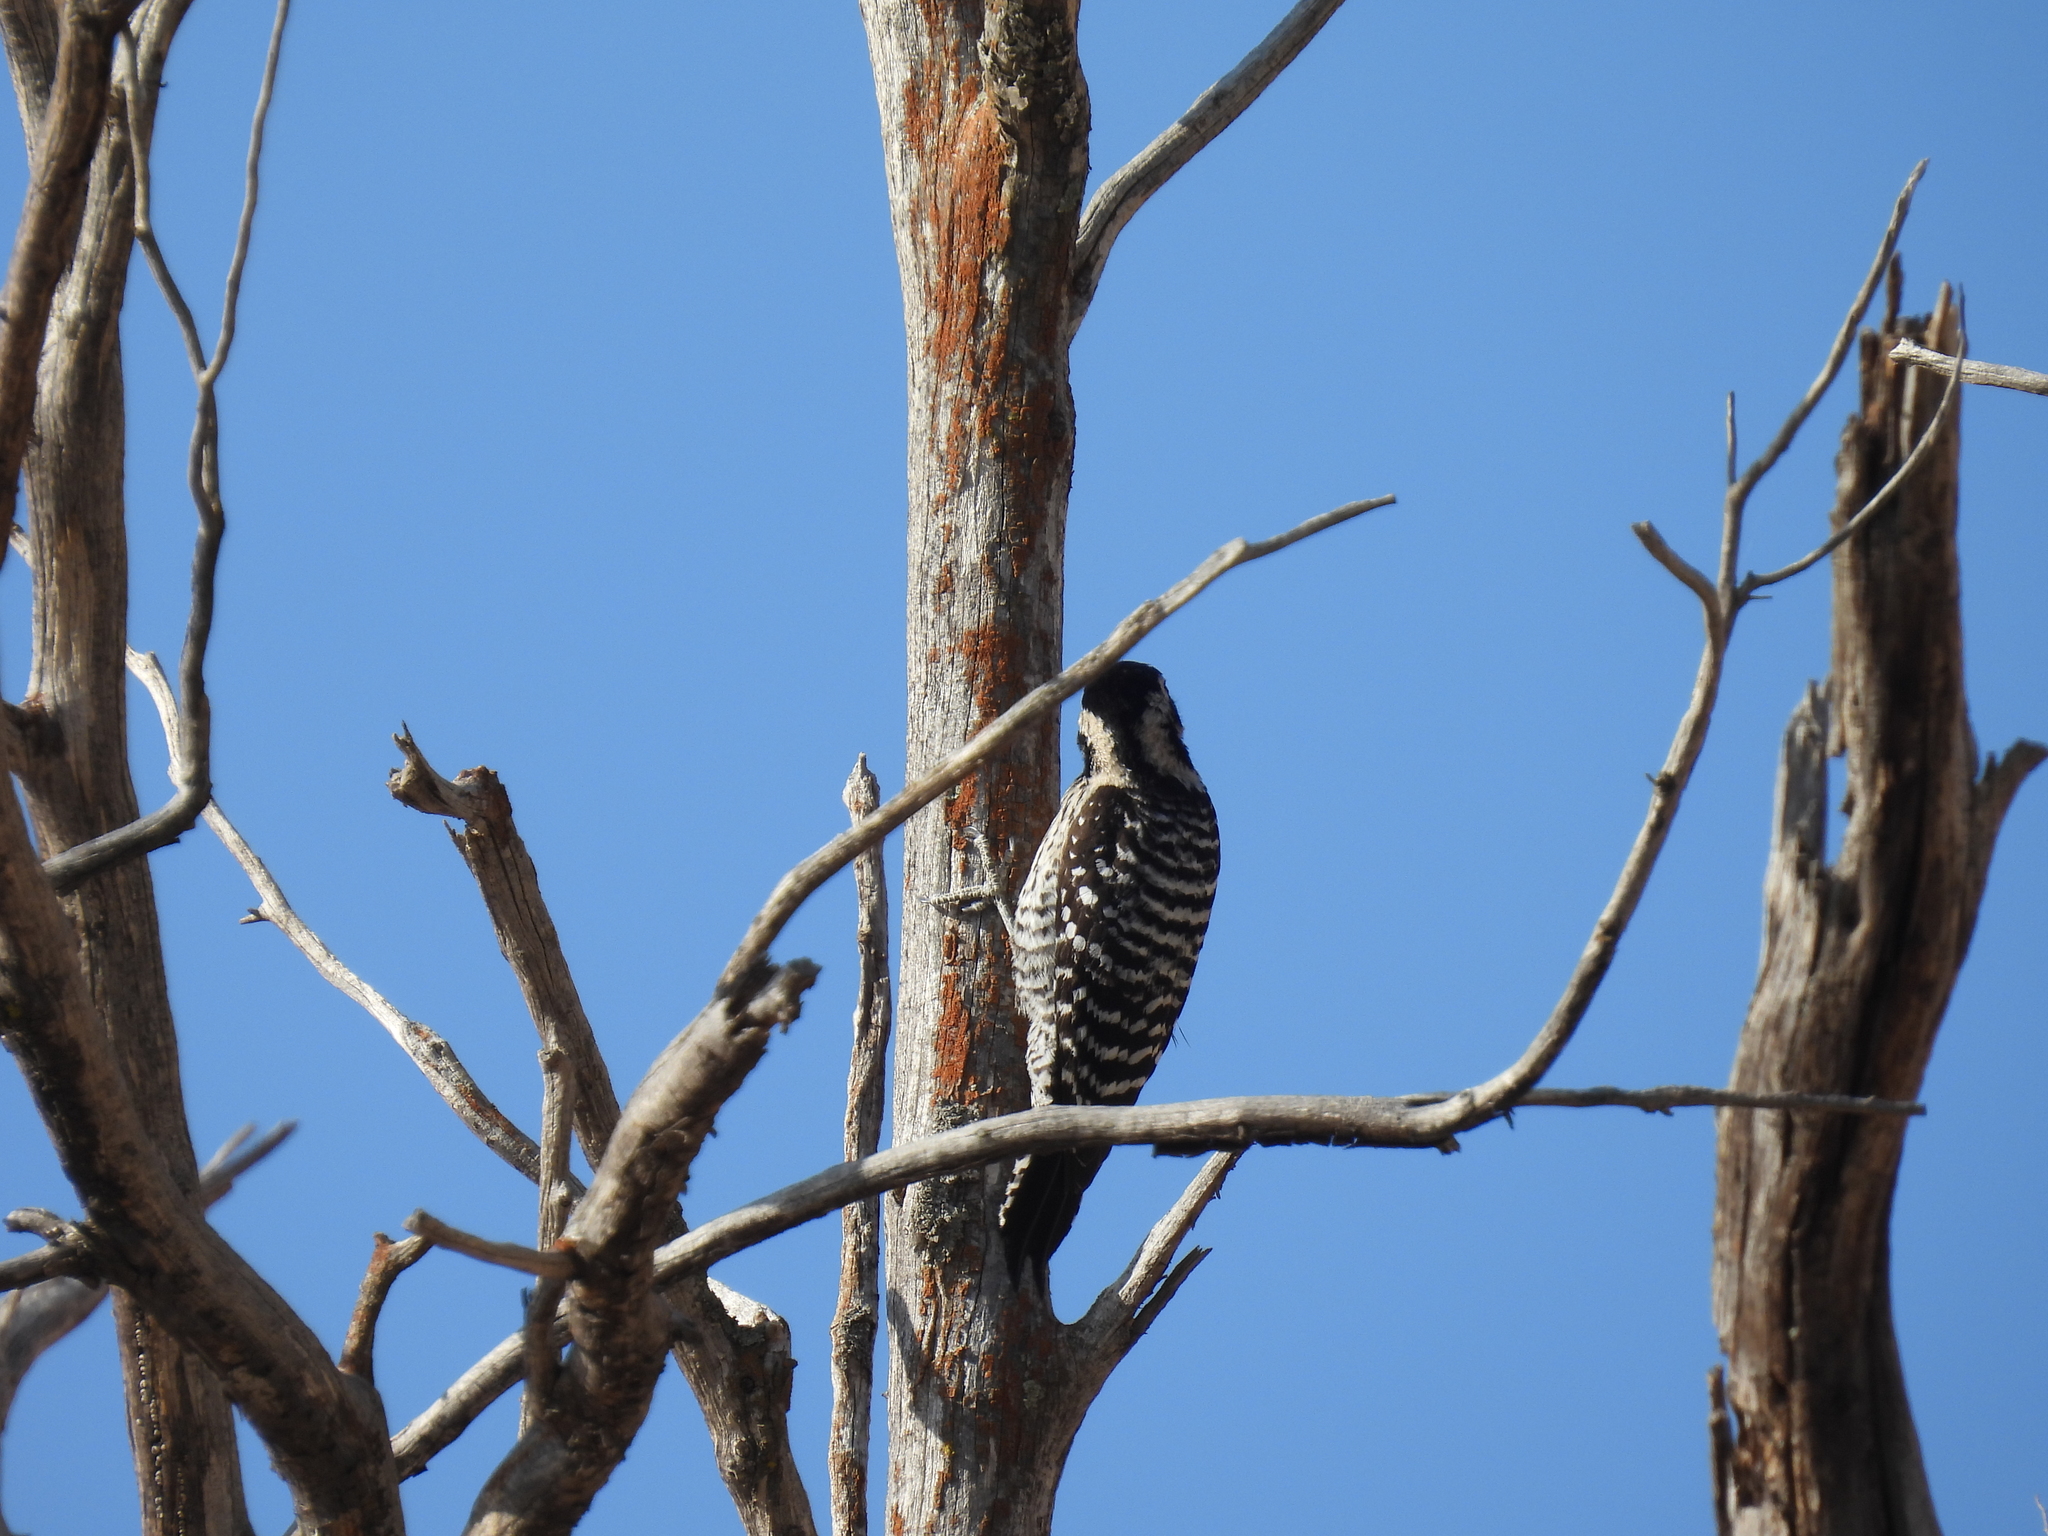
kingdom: Animalia
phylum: Chordata
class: Aves
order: Piciformes
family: Picidae
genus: Dryobates
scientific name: Dryobates scalaris
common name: Ladder-backed woodpecker
